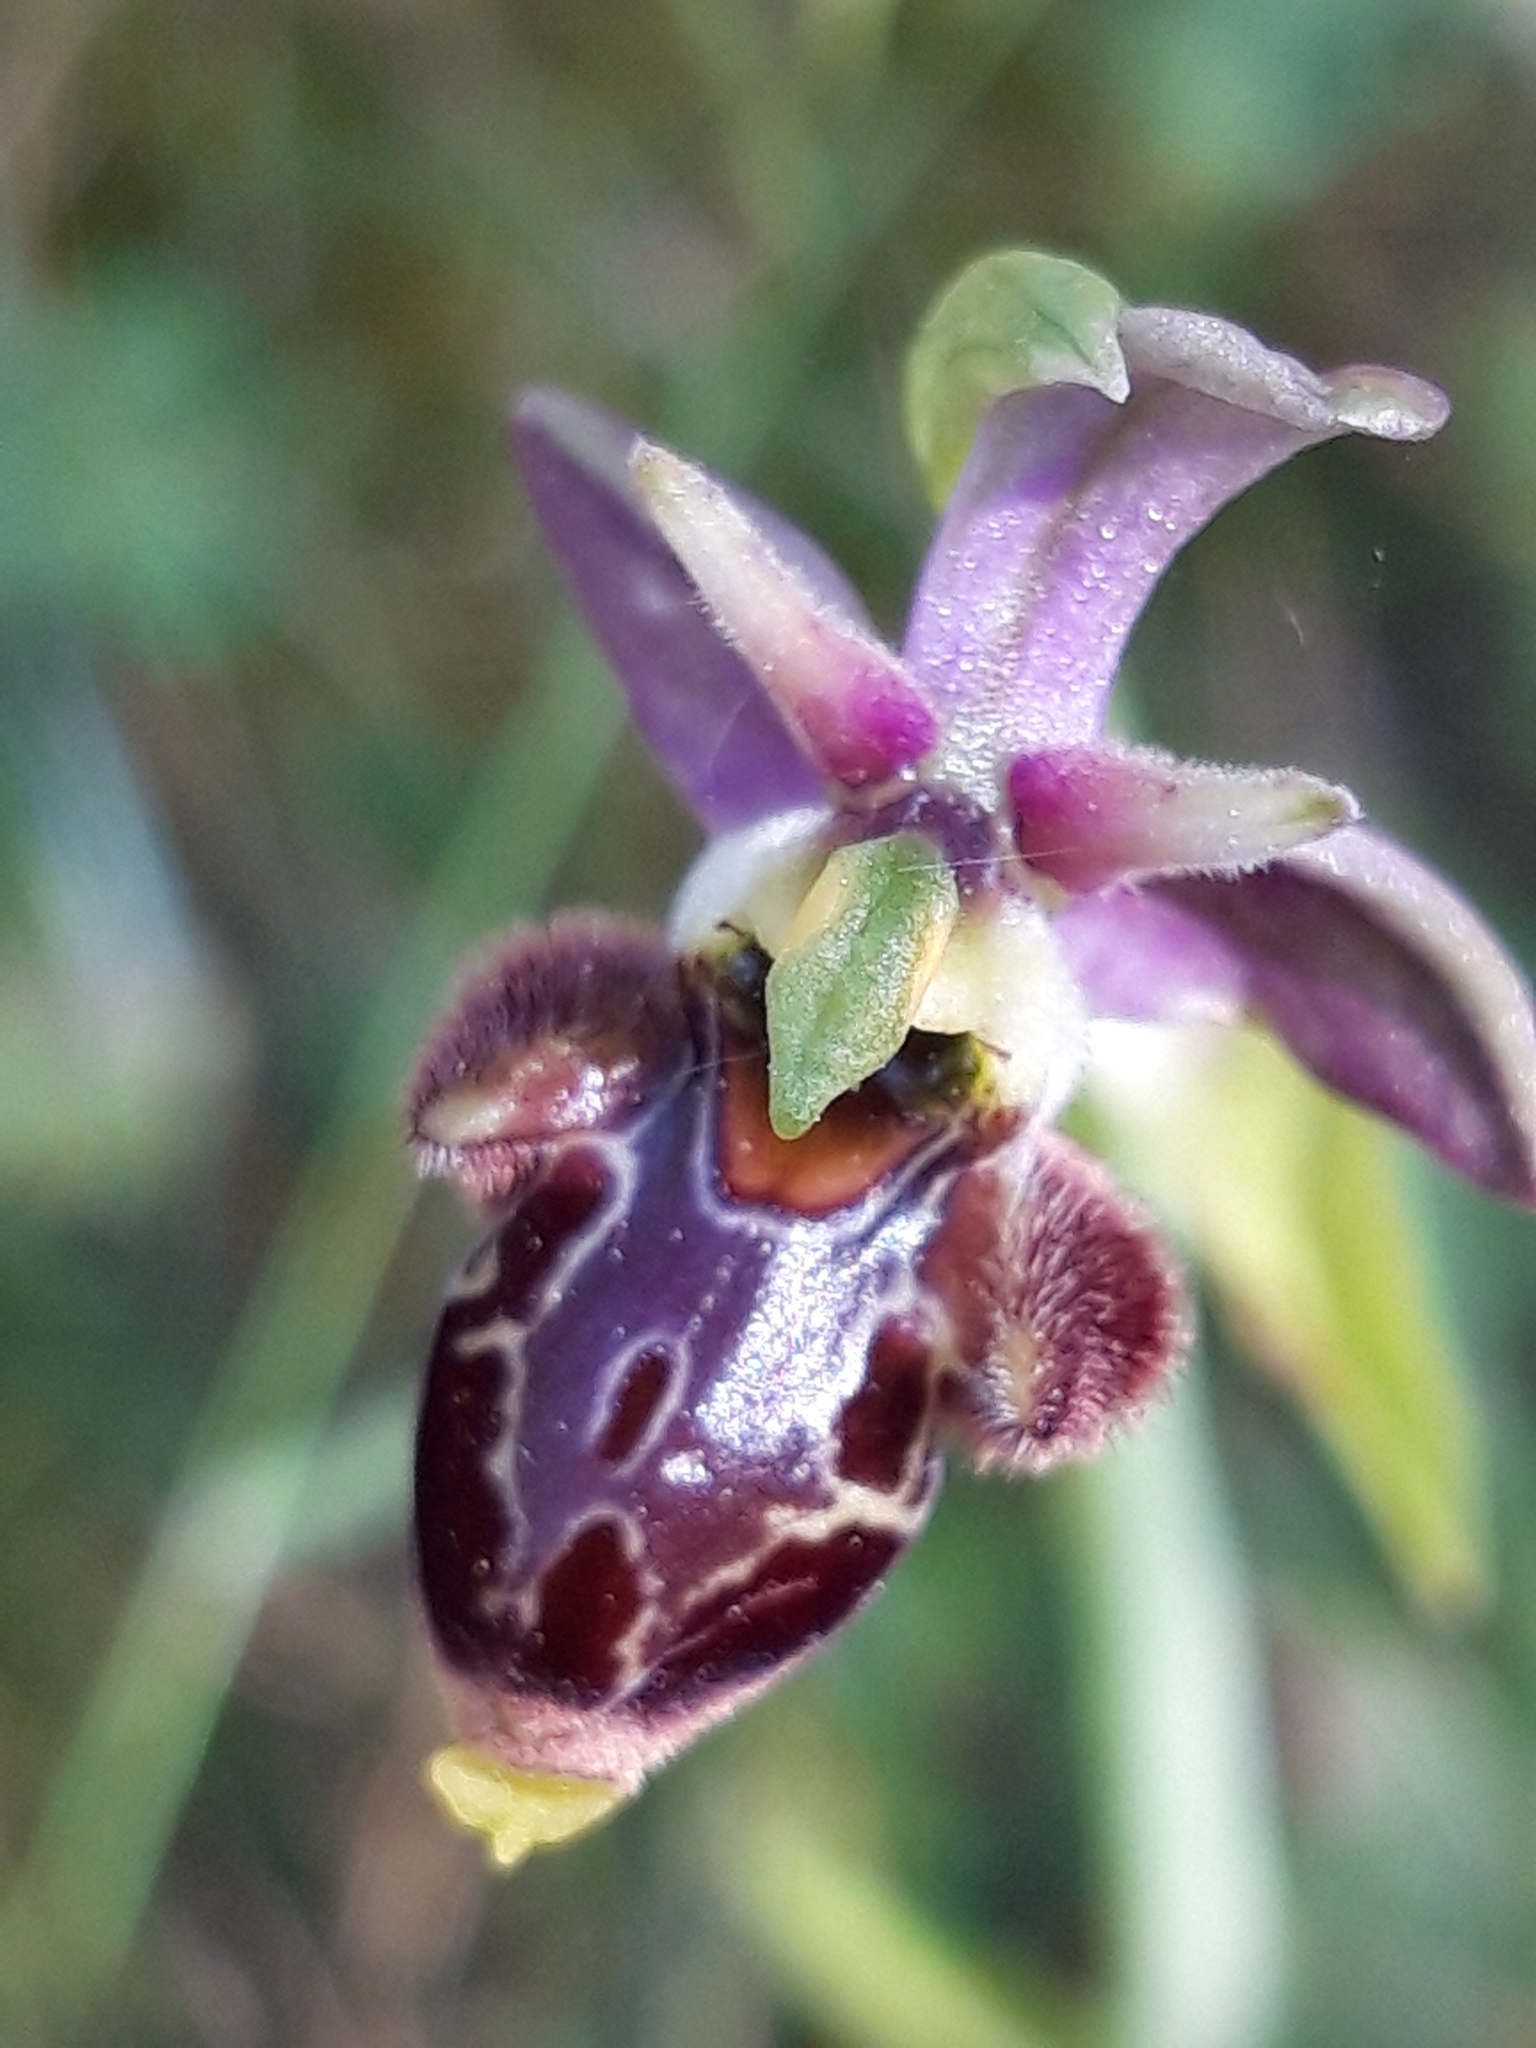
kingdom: Plantae
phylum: Tracheophyta
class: Liliopsida
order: Asparagales
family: Orchidaceae
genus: Ophrys
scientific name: Ophrys scolopax
